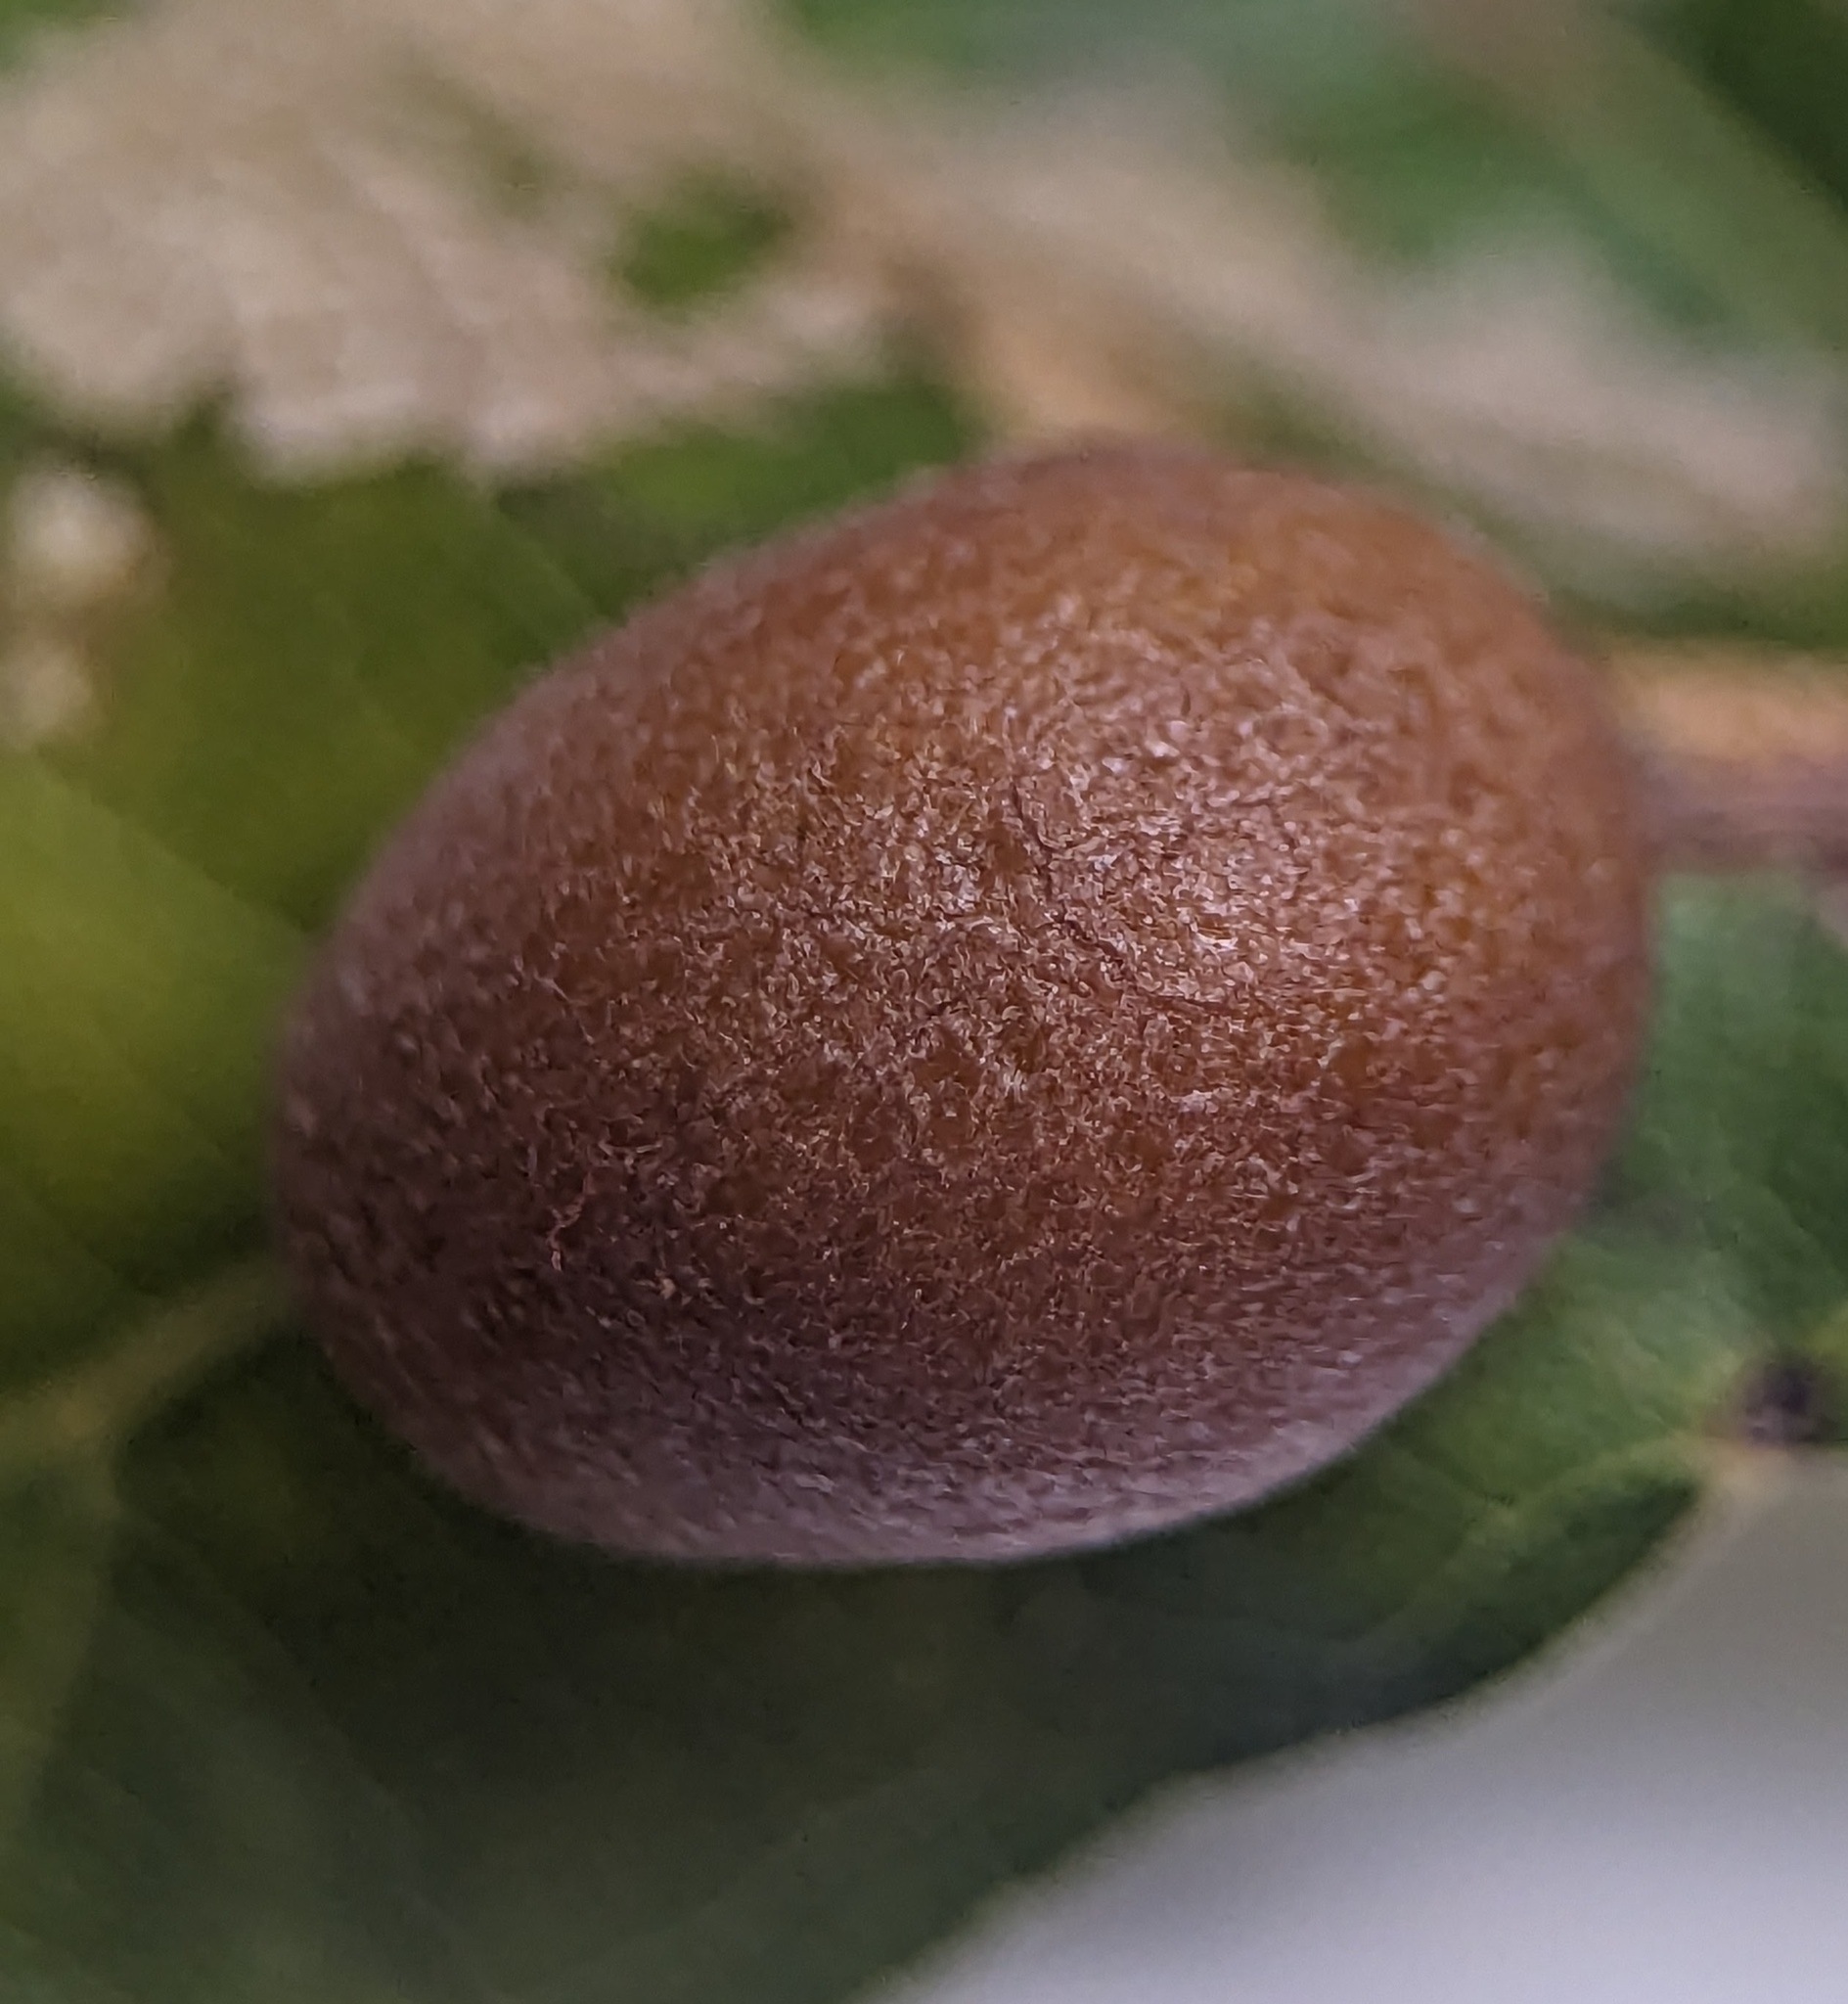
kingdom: Animalia
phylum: Arthropoda
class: Insecta
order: Diptera
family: Cecidomyiidae
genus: Polystepha
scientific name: Polystepha pilulae
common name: Oak leaf gall midge
